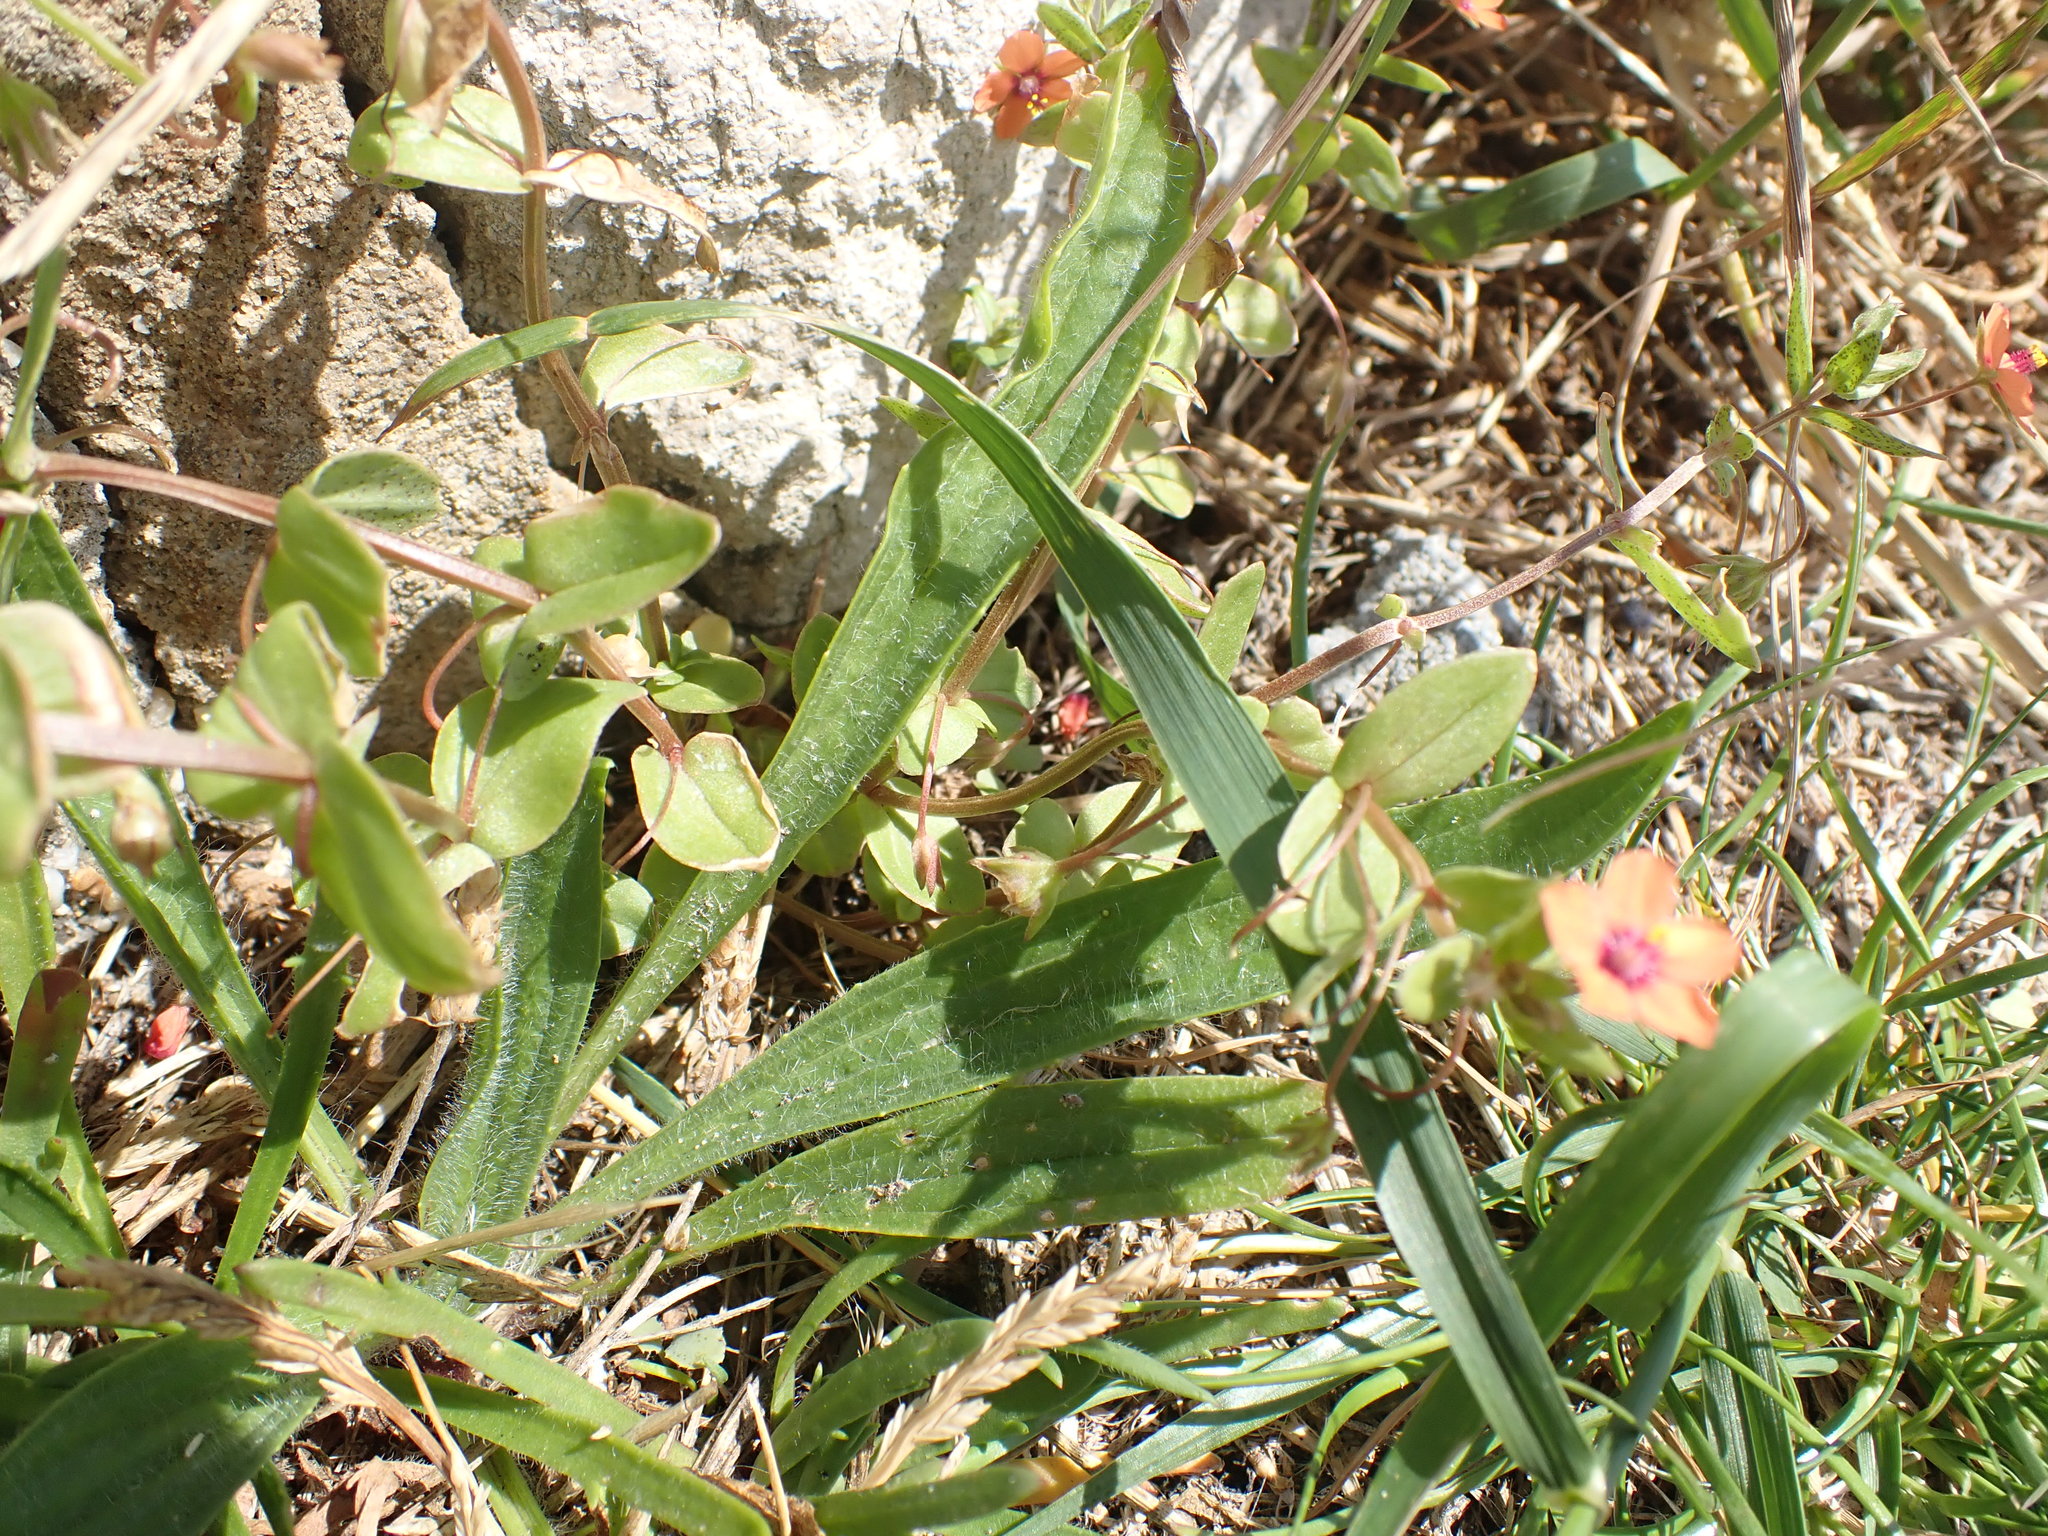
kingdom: Plantae
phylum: Tracheophyta
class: Magnoliopsida
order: Ericales
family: Primulaceae
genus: Lysimachia
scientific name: Lysimachia arvensis
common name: Scarlet pimpernel
